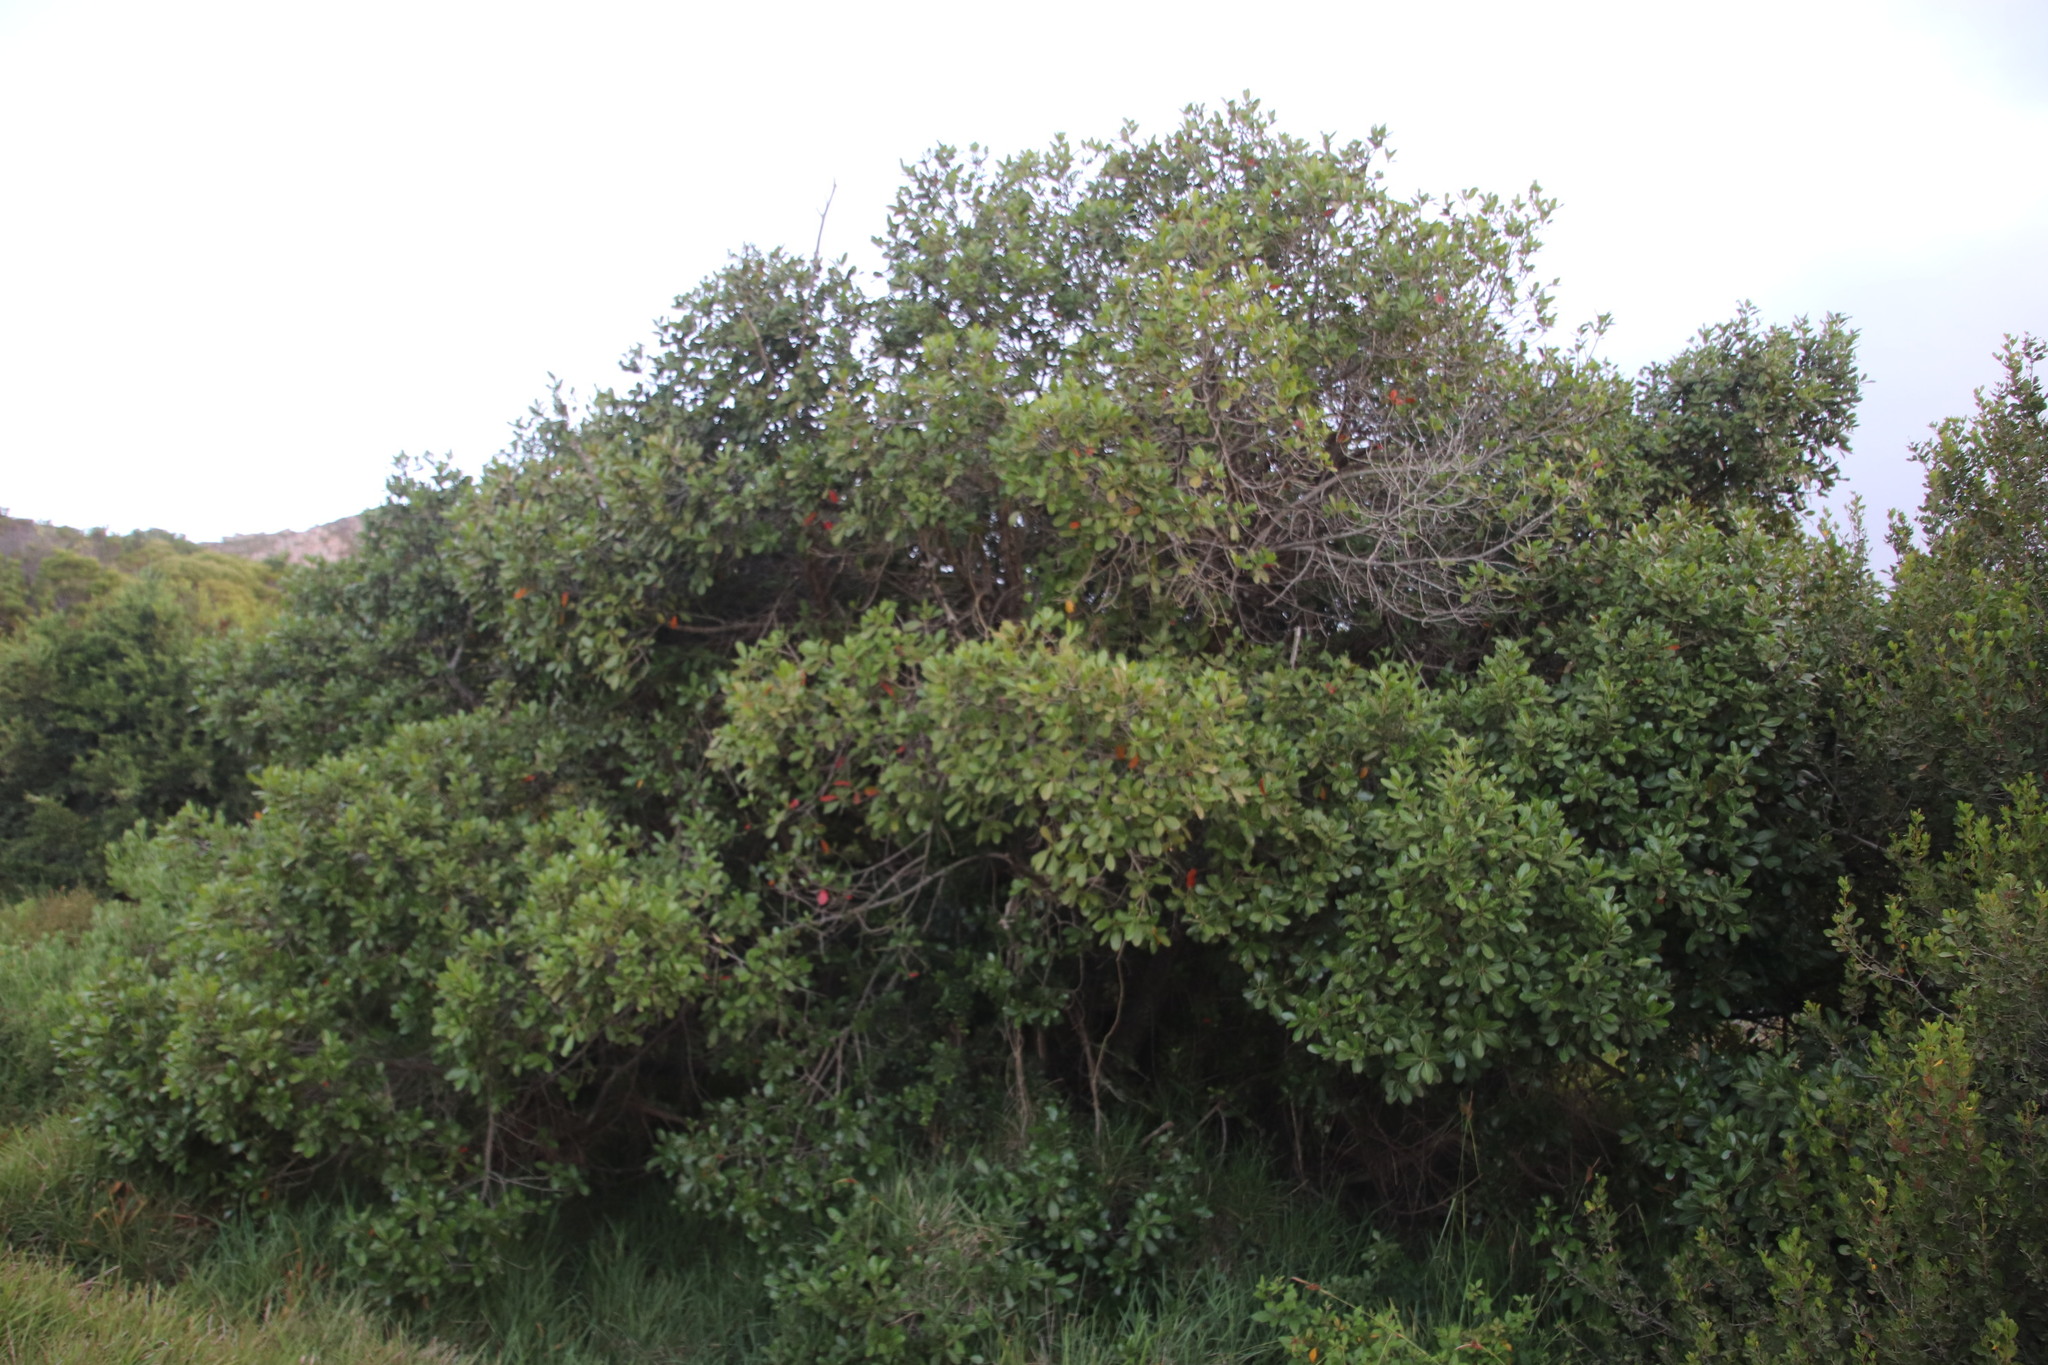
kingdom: Plantae
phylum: Tracheophyta
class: Magnoliopsida
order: Ericales
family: Sapotaceae
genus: Sideroxylon
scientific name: Sideroxylon inerme
